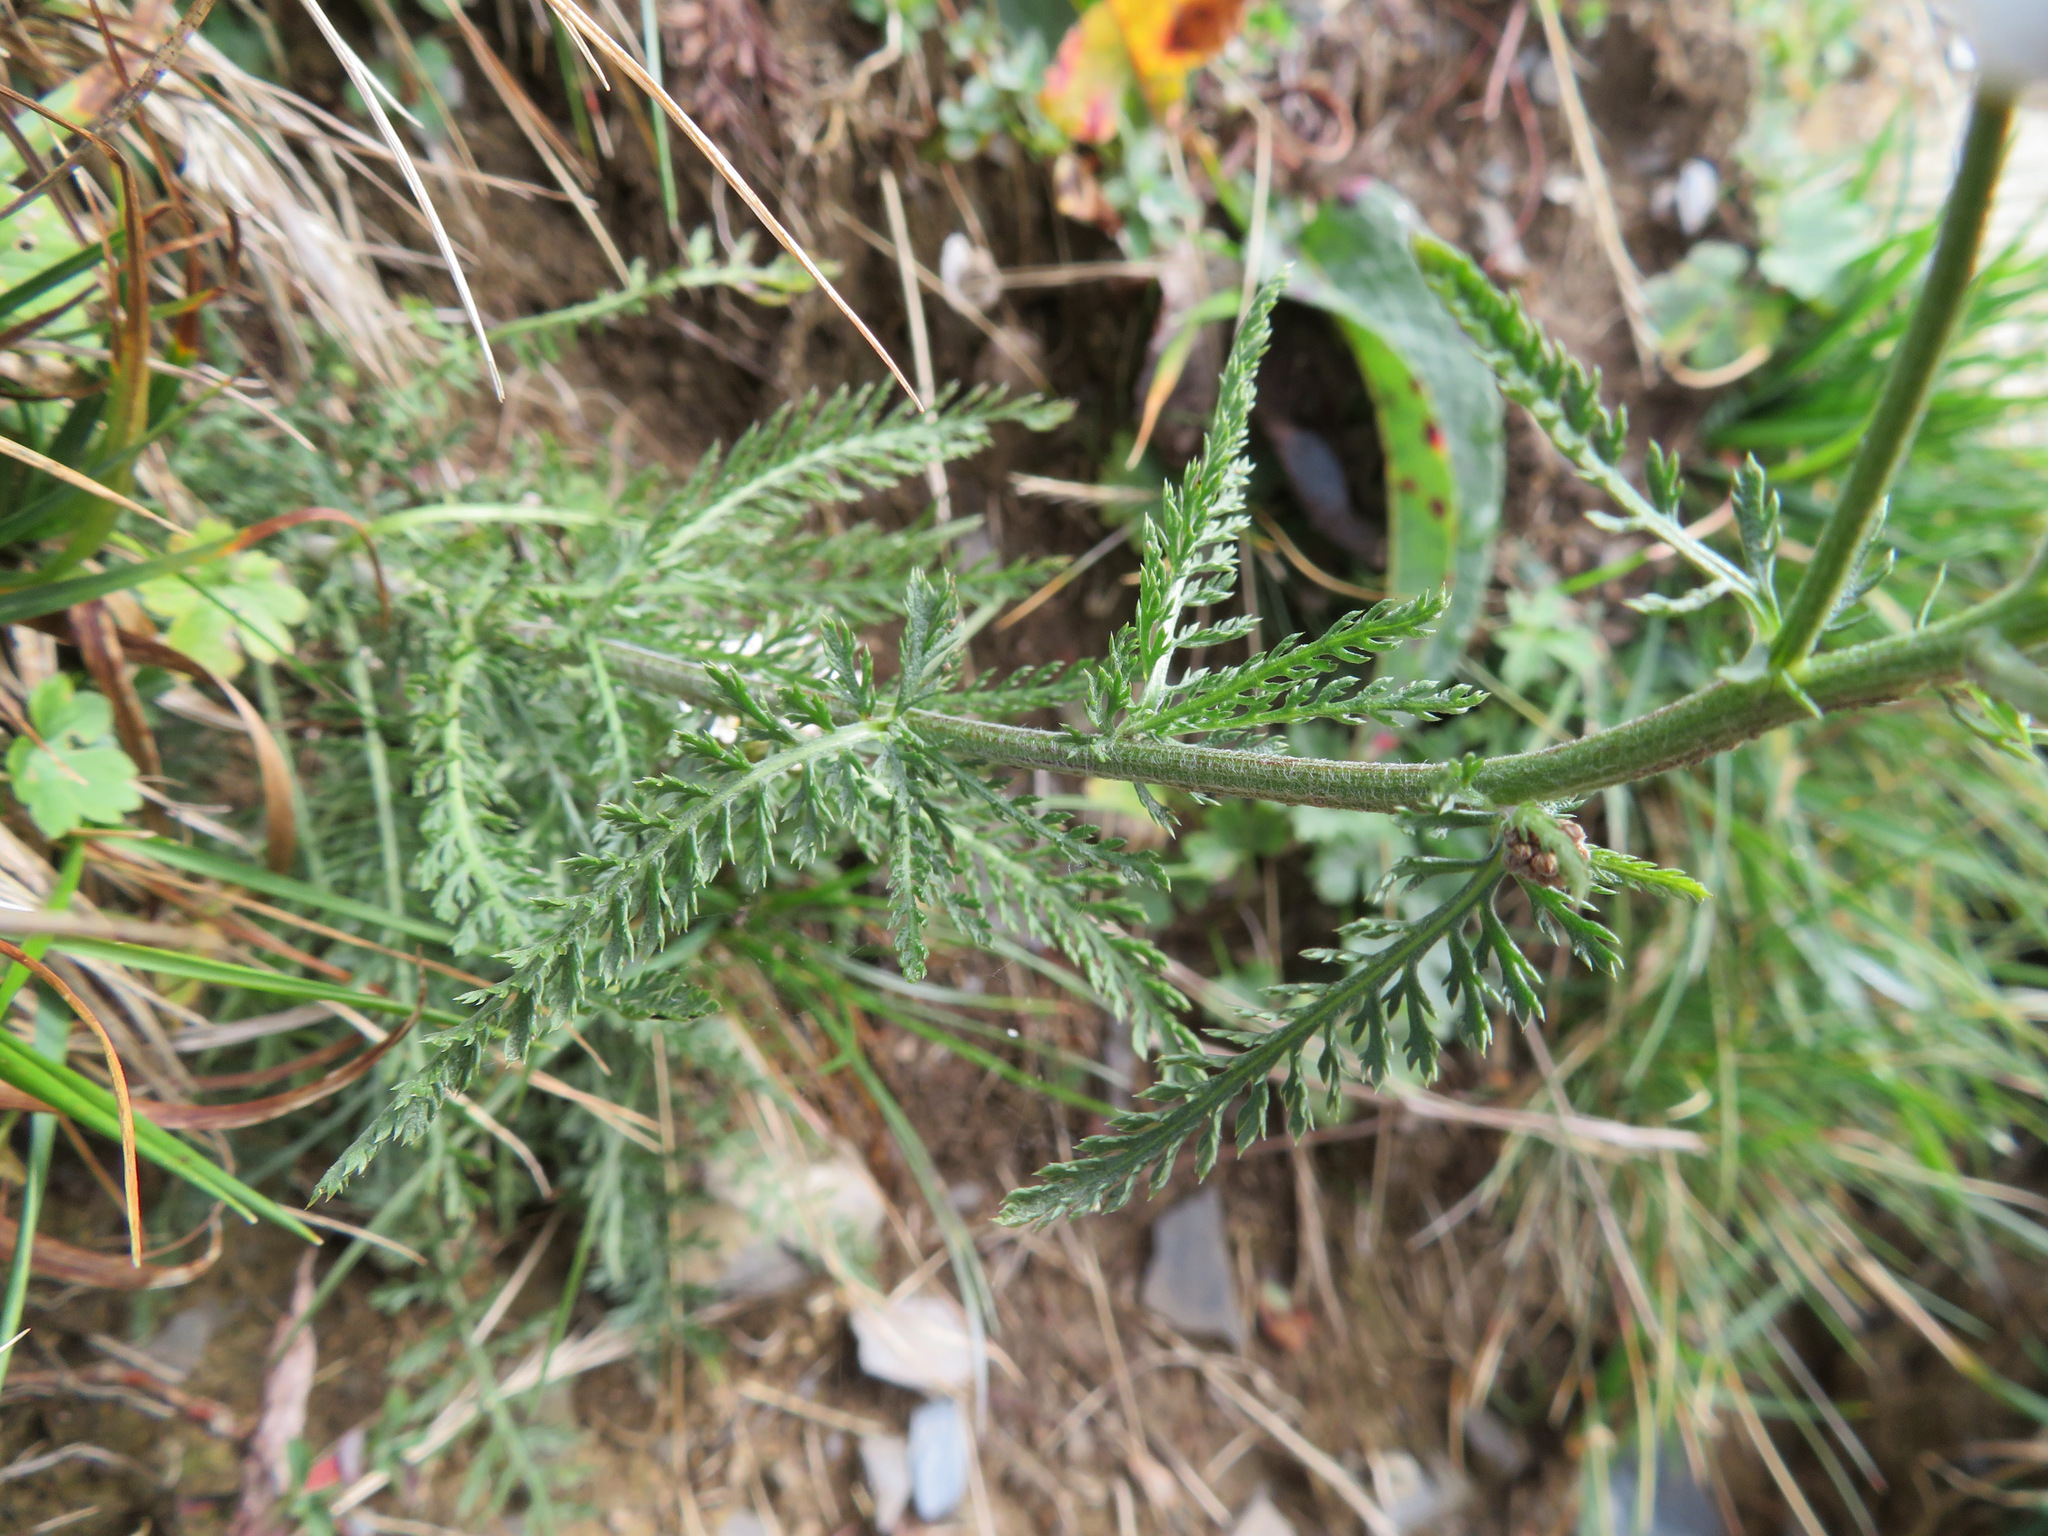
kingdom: Plantae
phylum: Tracheophyta
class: Magnoliopsida
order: Asterales
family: Asteraceae
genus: Achillea
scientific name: Achillea millefolium
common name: Yarrow
